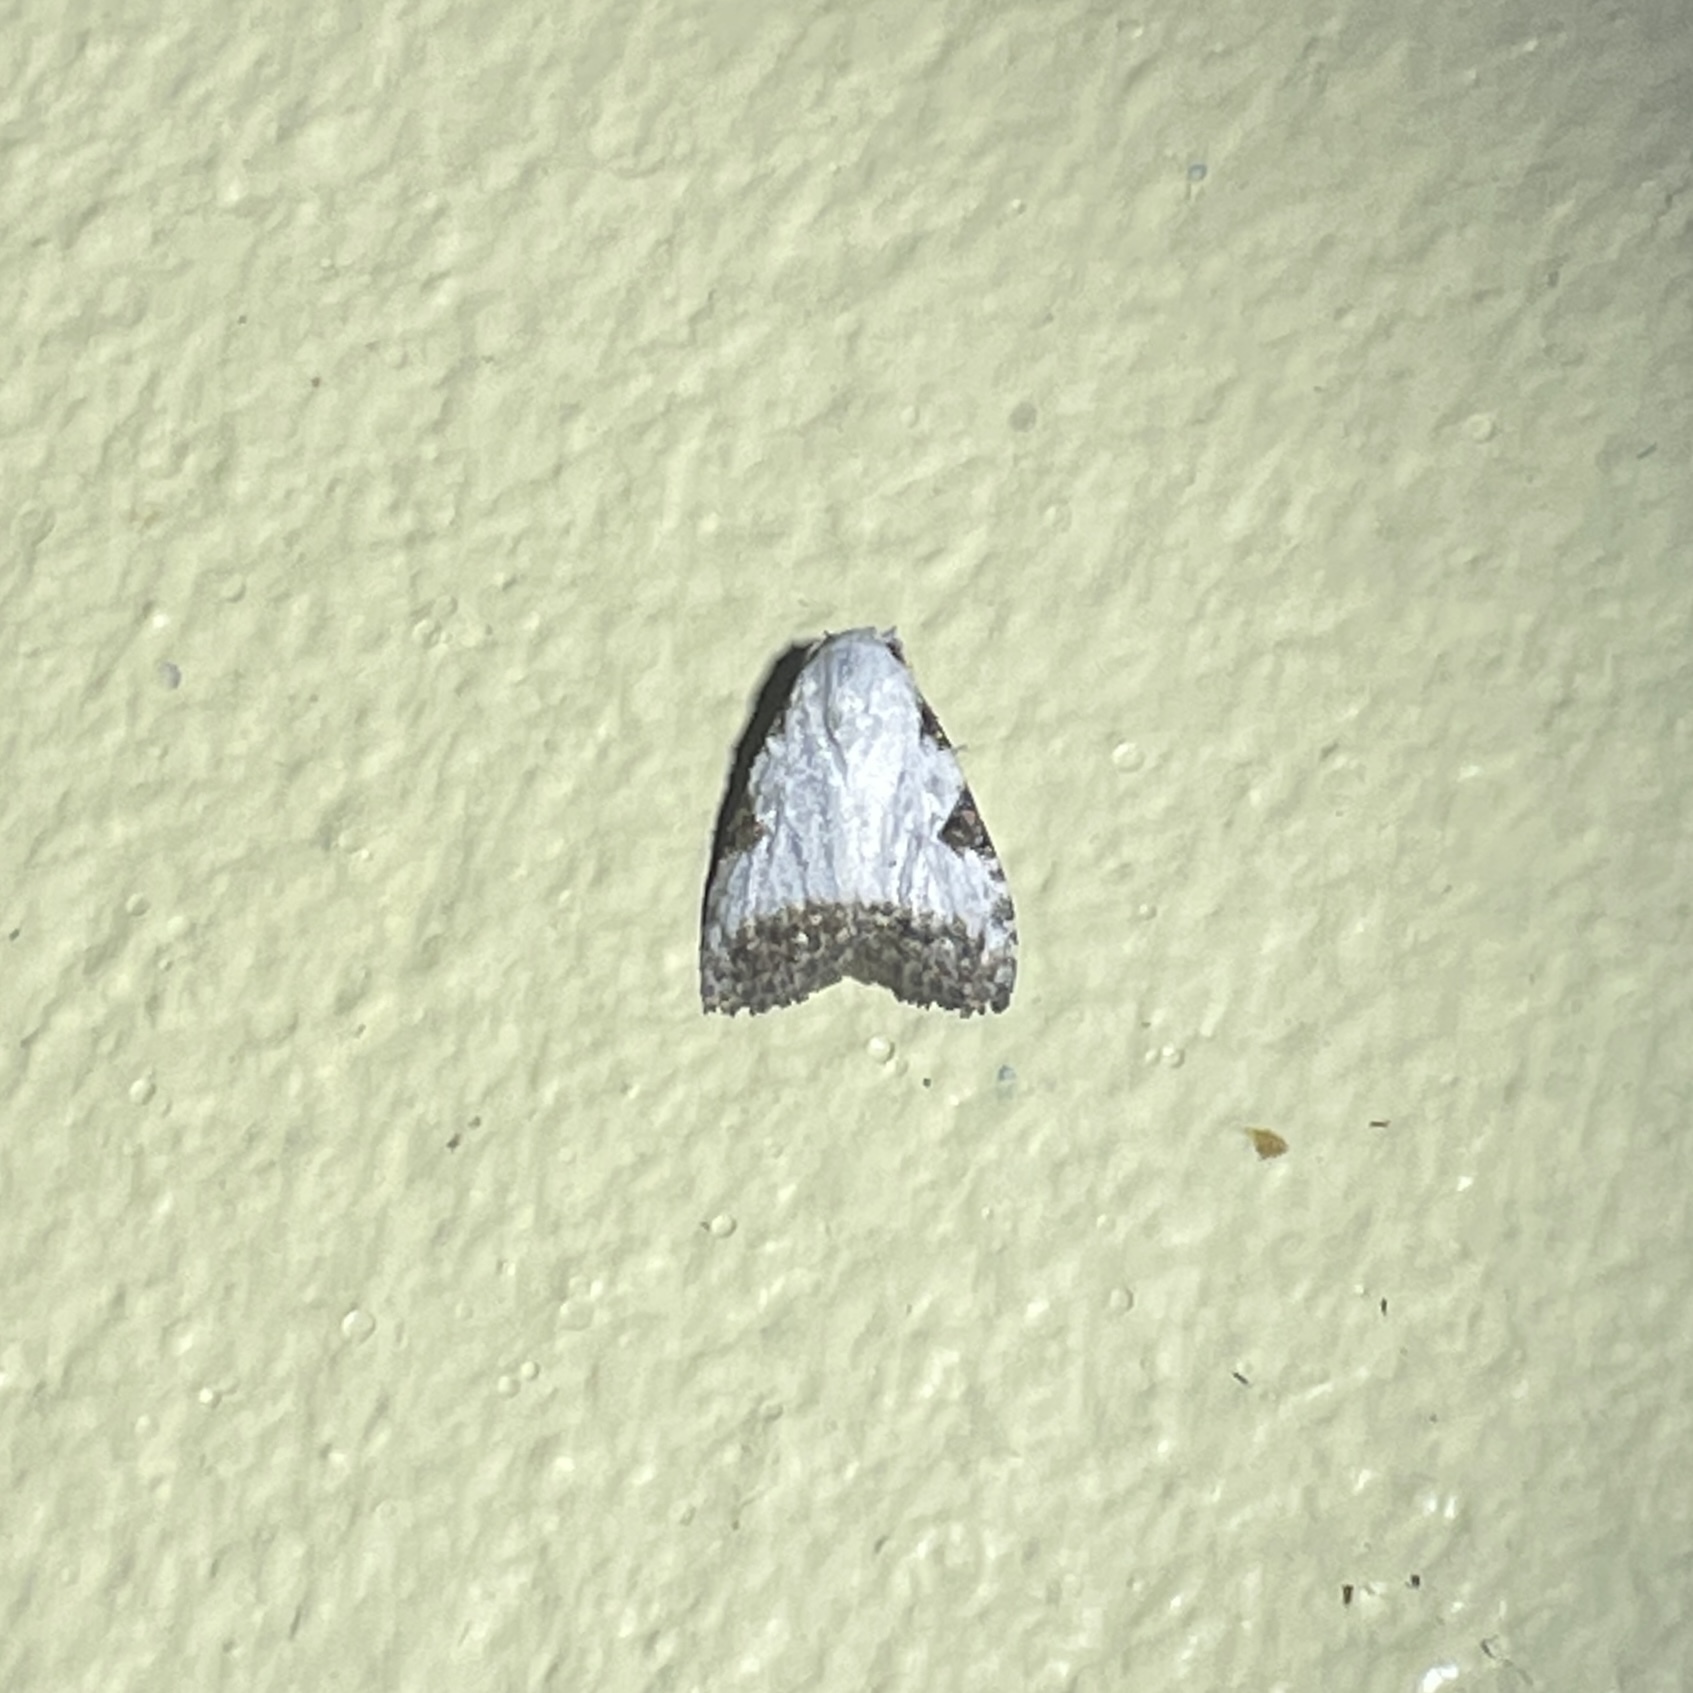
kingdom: Animalia
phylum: Arthropoda
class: Insecta
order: Lepidoptera
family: Nolidae
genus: Meganola
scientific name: Meganola pernitens
